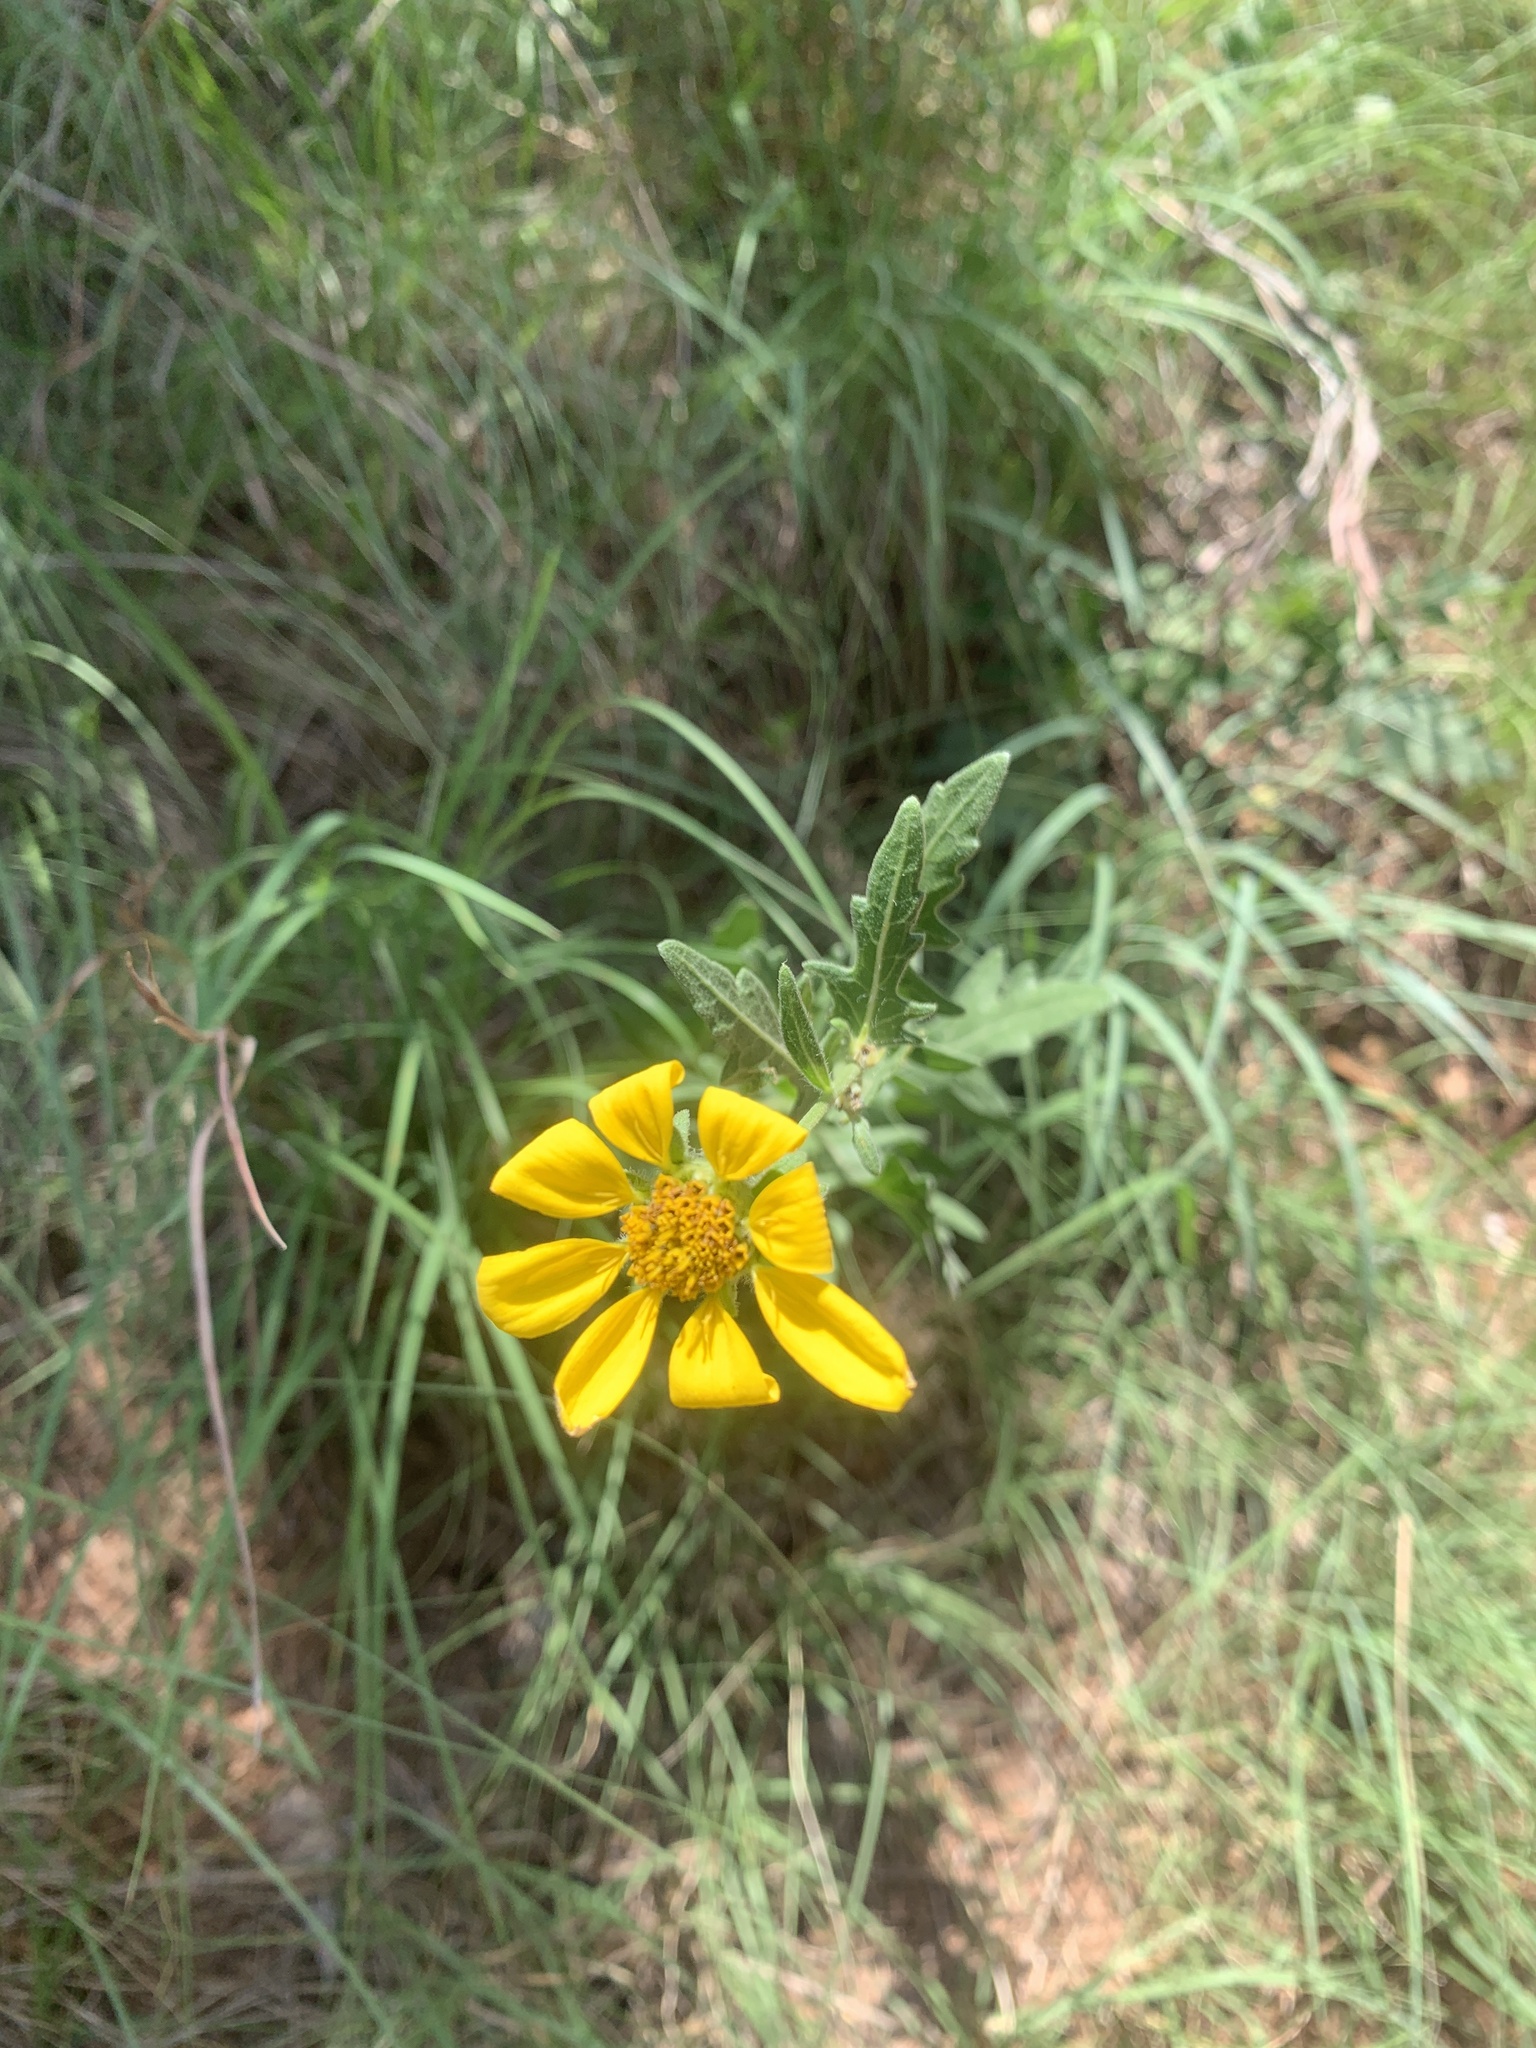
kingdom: Plantae
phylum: Tracheophyta
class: Magnoliopsida
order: Asterales
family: Asteraceae
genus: Engelmannia
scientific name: Engelmannia peristenia
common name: Engelmann's daisy
